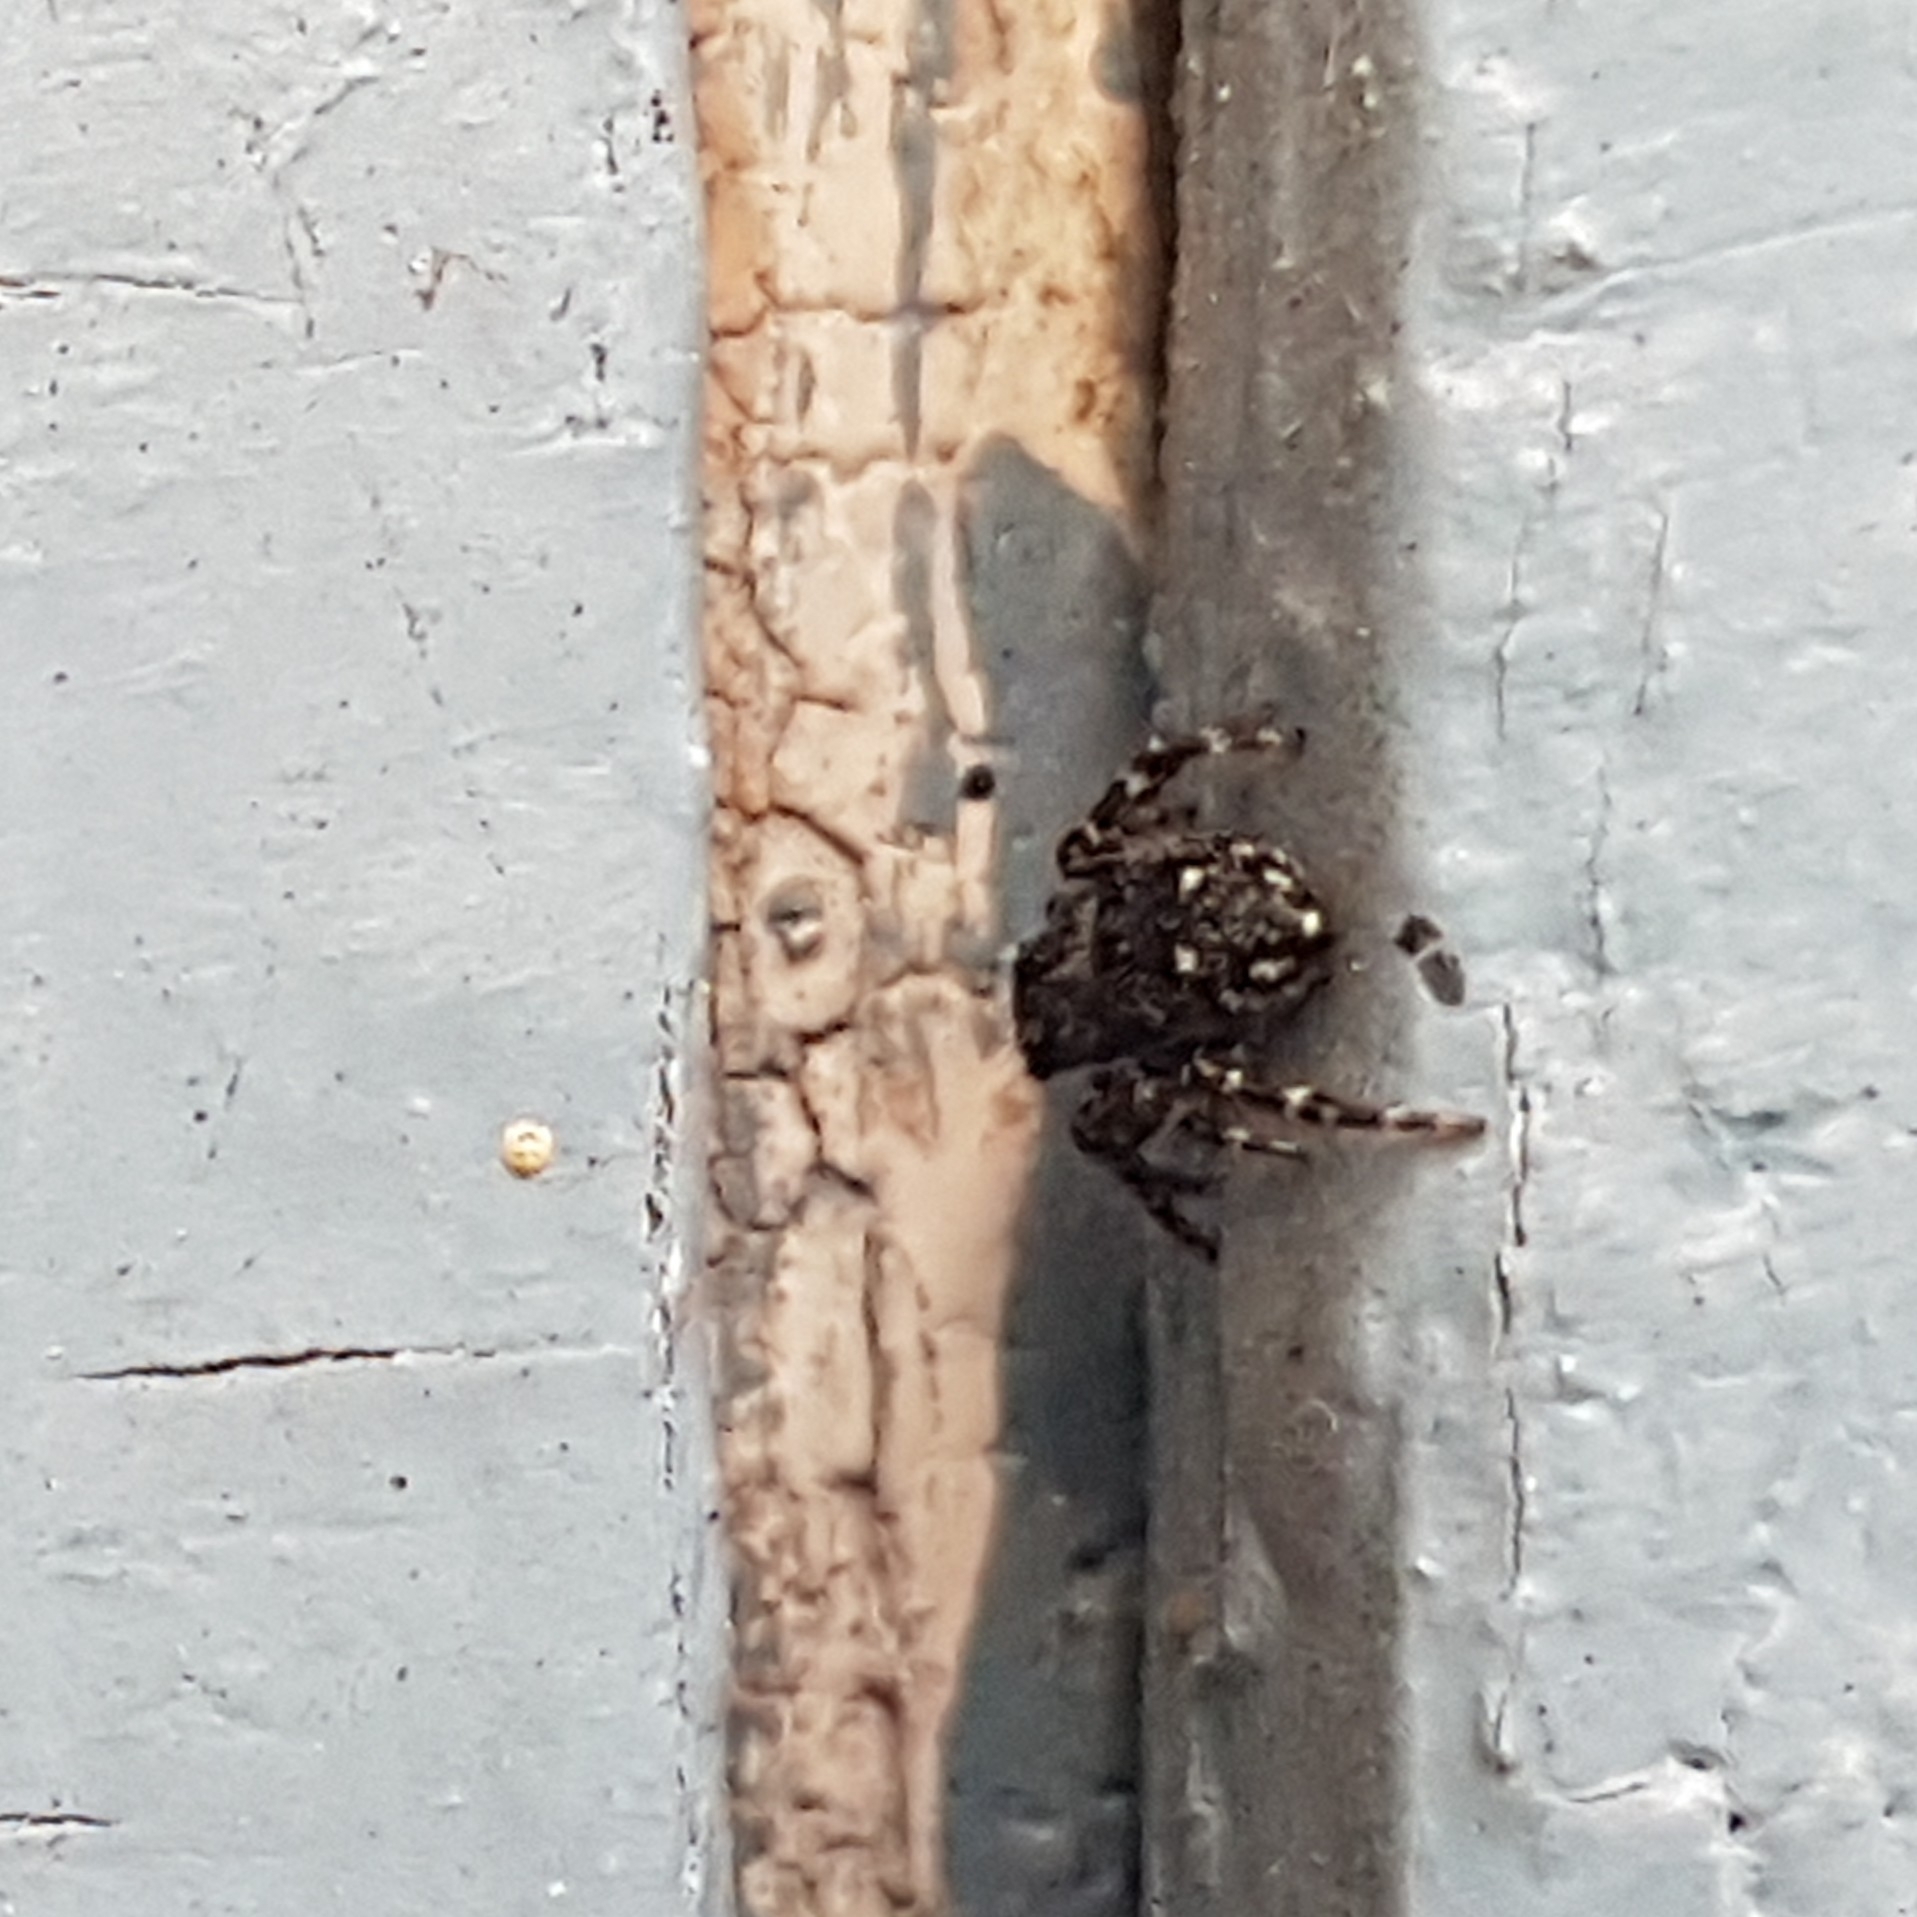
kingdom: Animalia
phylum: Arthropoda
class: Arachnida
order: Araneae
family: Salticidae
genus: Attulus
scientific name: Attulus pubescens
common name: Jumping spider
